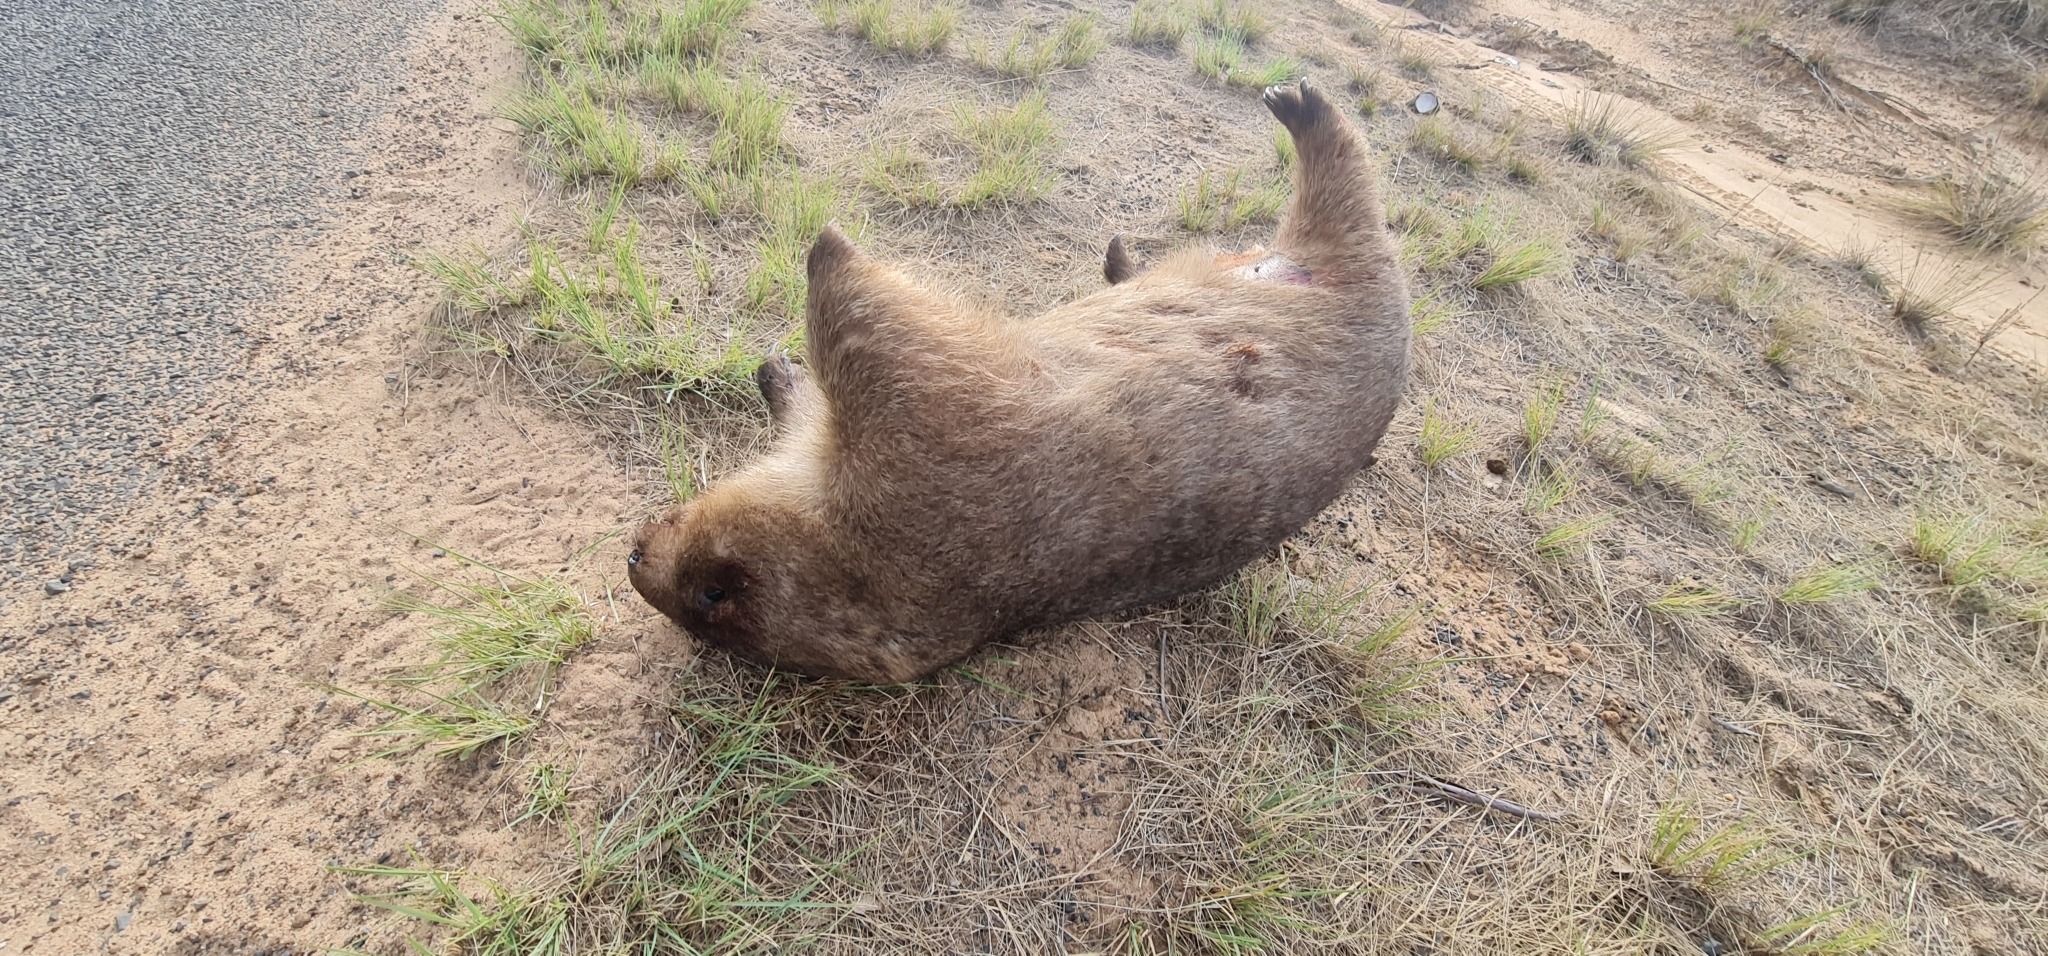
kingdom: Animalia
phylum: Chordata
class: Mammalia
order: Diprotodontia
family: Vombatidae
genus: Vombatus
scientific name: Vombatus ursinus
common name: Common wombat
